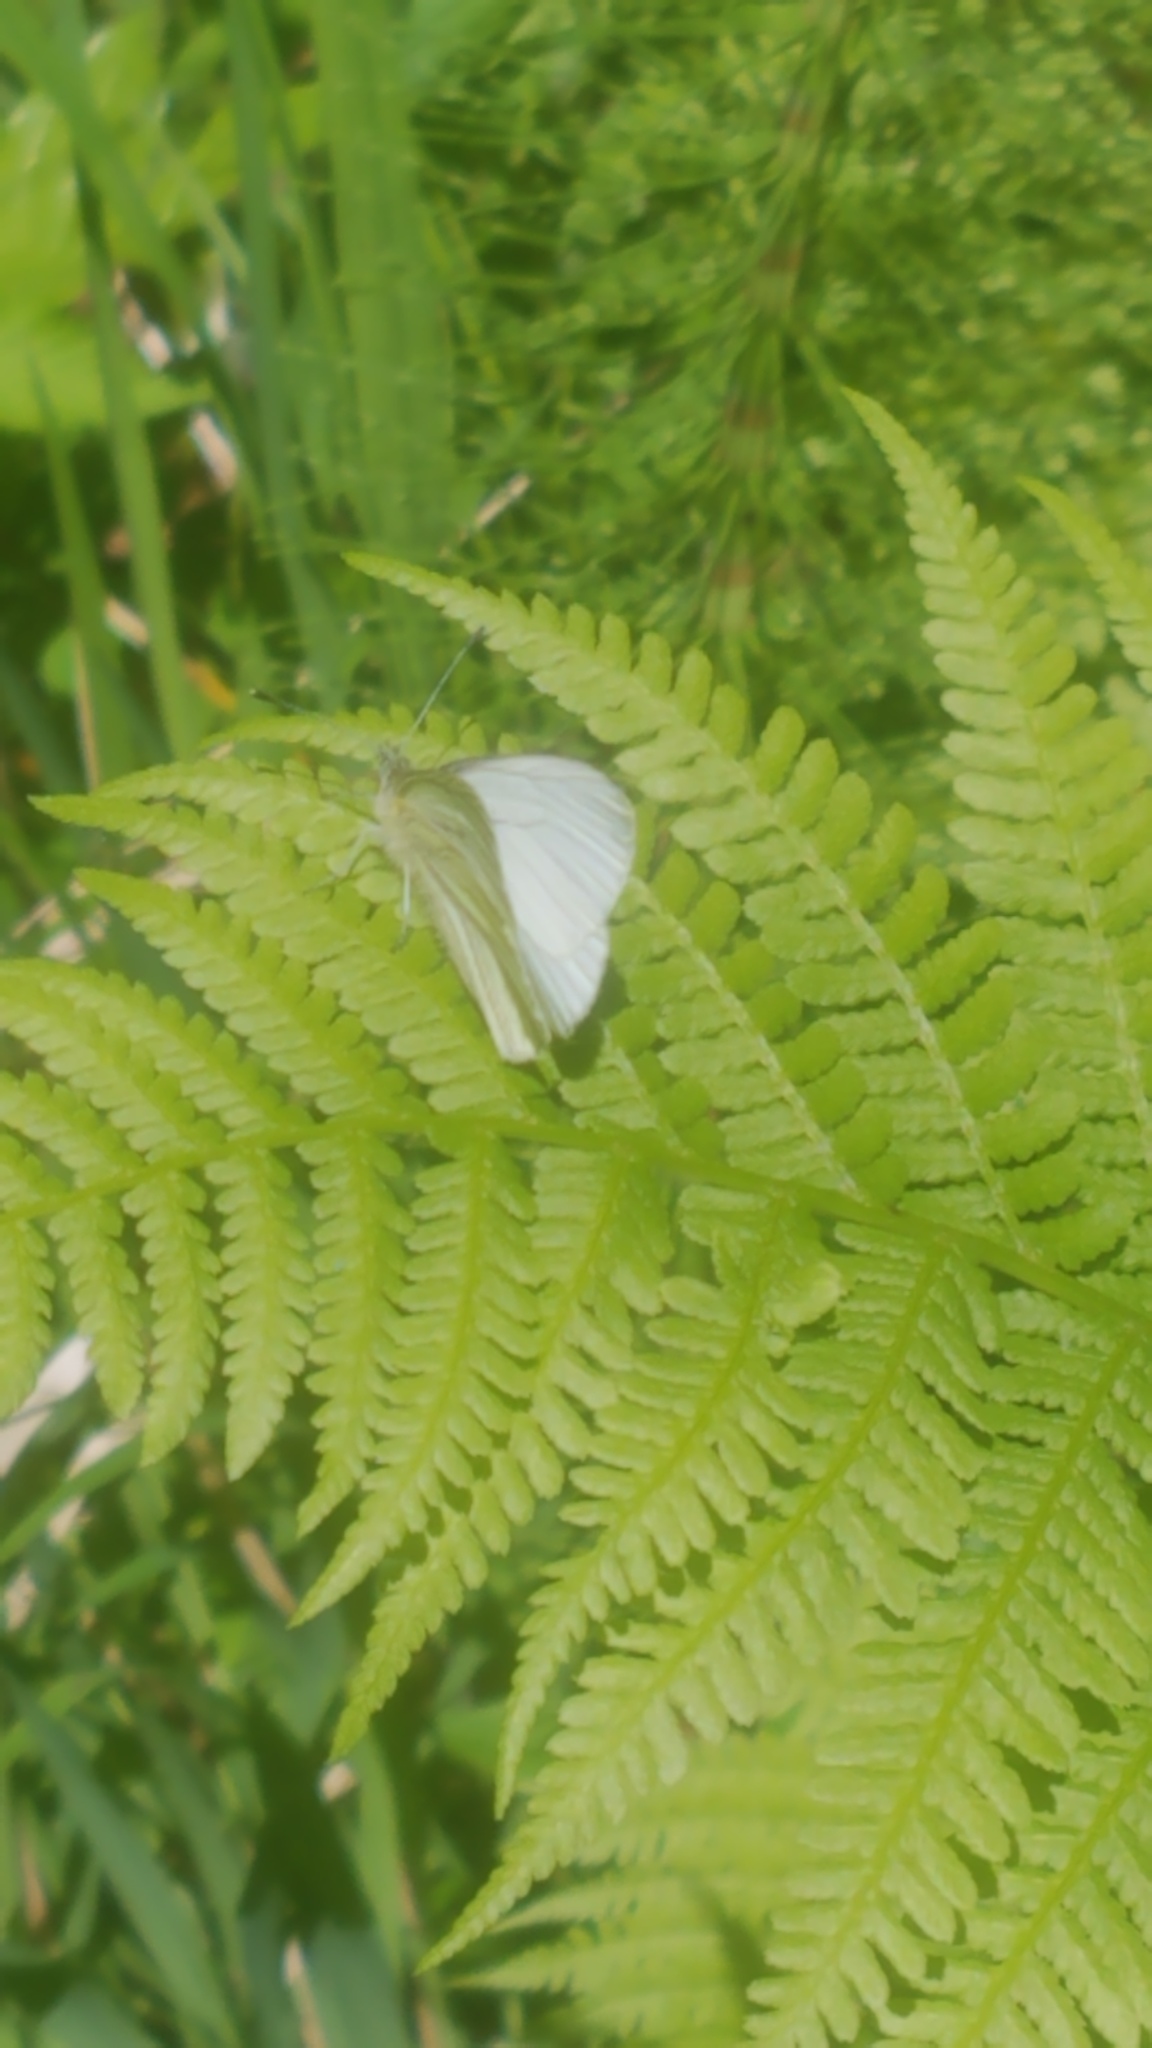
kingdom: Animalia
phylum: Arthropoda
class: Insecta
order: Lepidoptera
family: Pieridae
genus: Pieris
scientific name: Pieris marginalis
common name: Margined white
